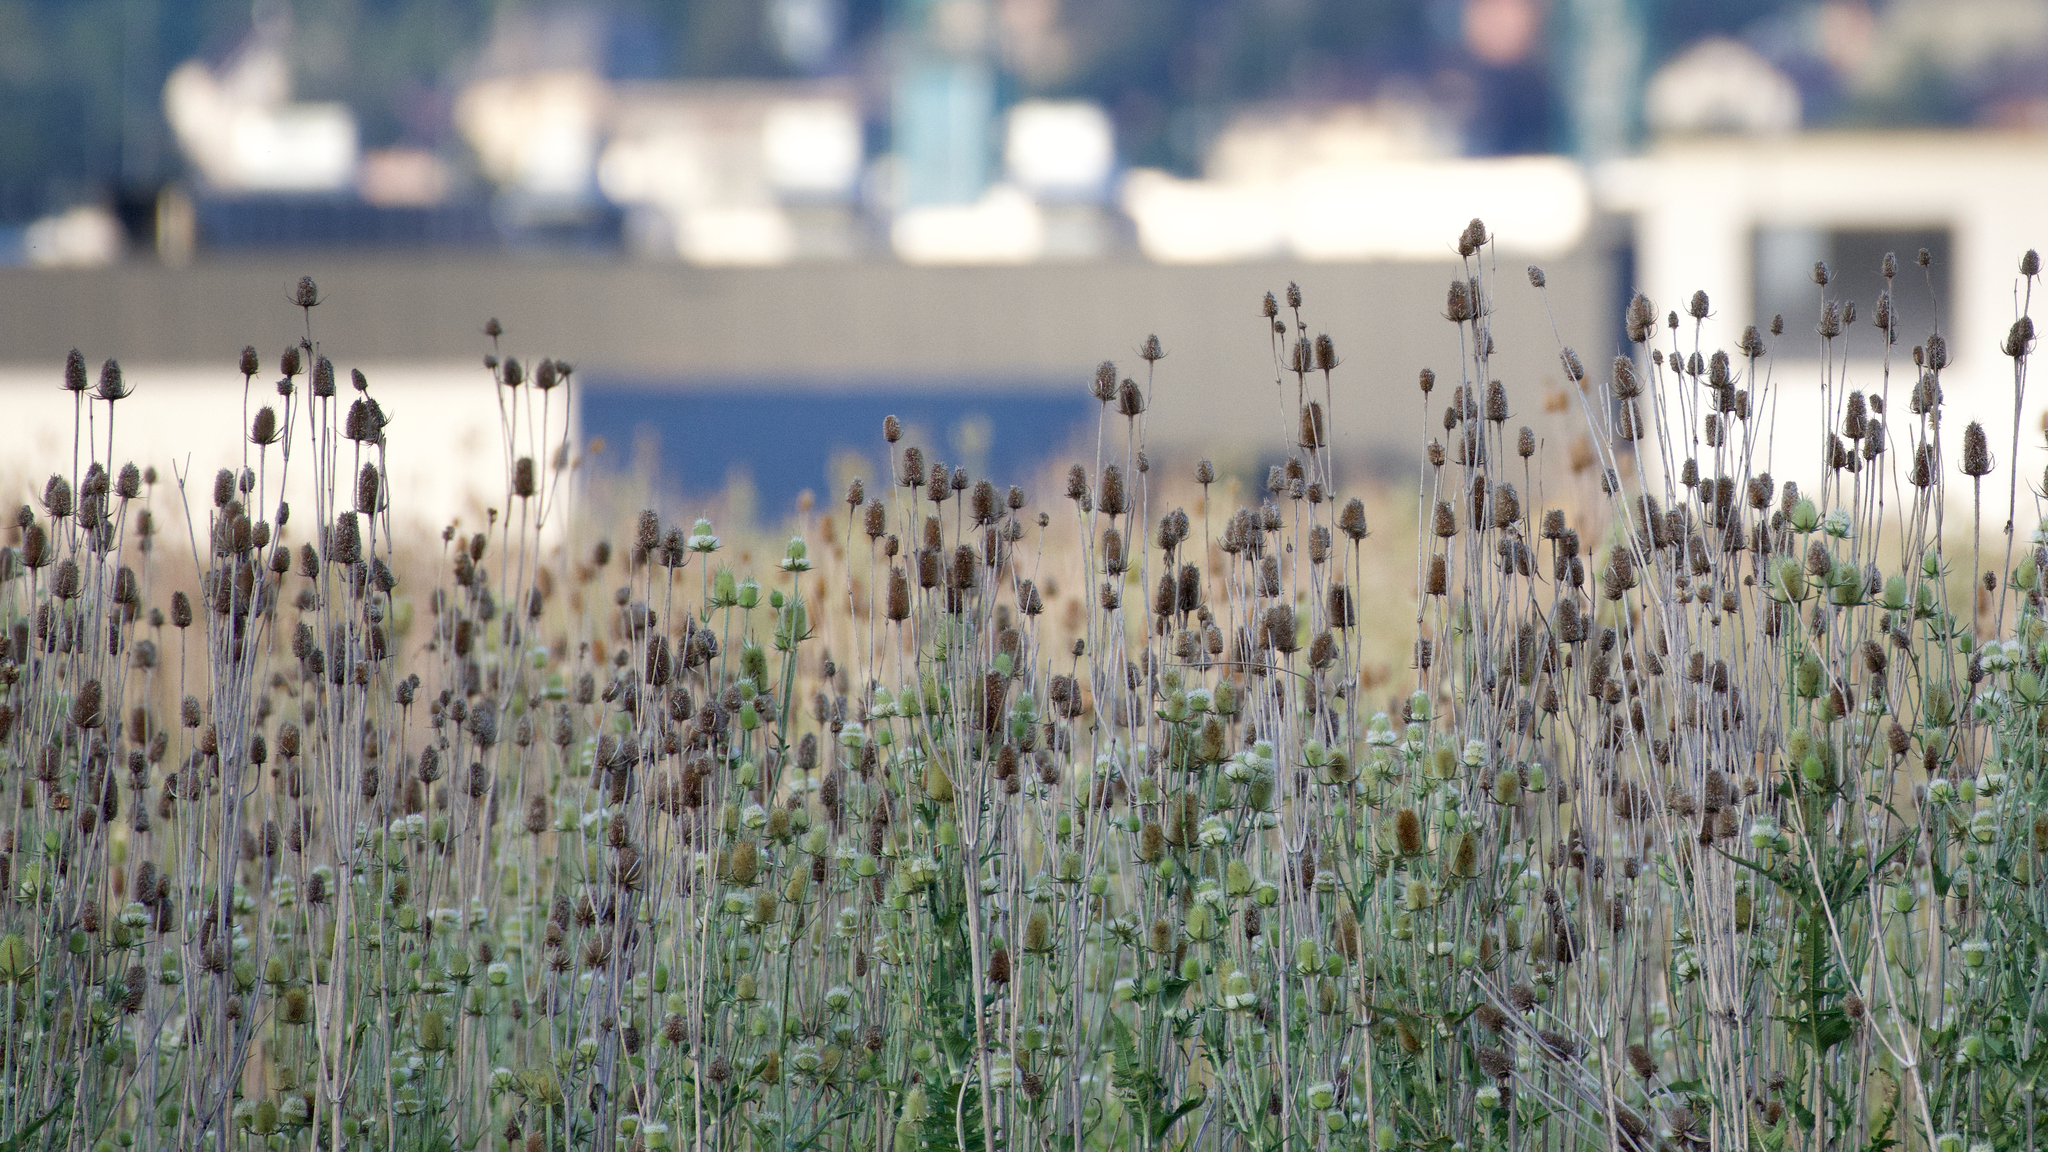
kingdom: Plantae
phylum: Tracheophyta
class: Magnoliopsida
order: Dipsacales
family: Caprifoliaceae
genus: Dipsacus
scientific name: Dipsacus laciniatus
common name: Cut-leaved teasel
